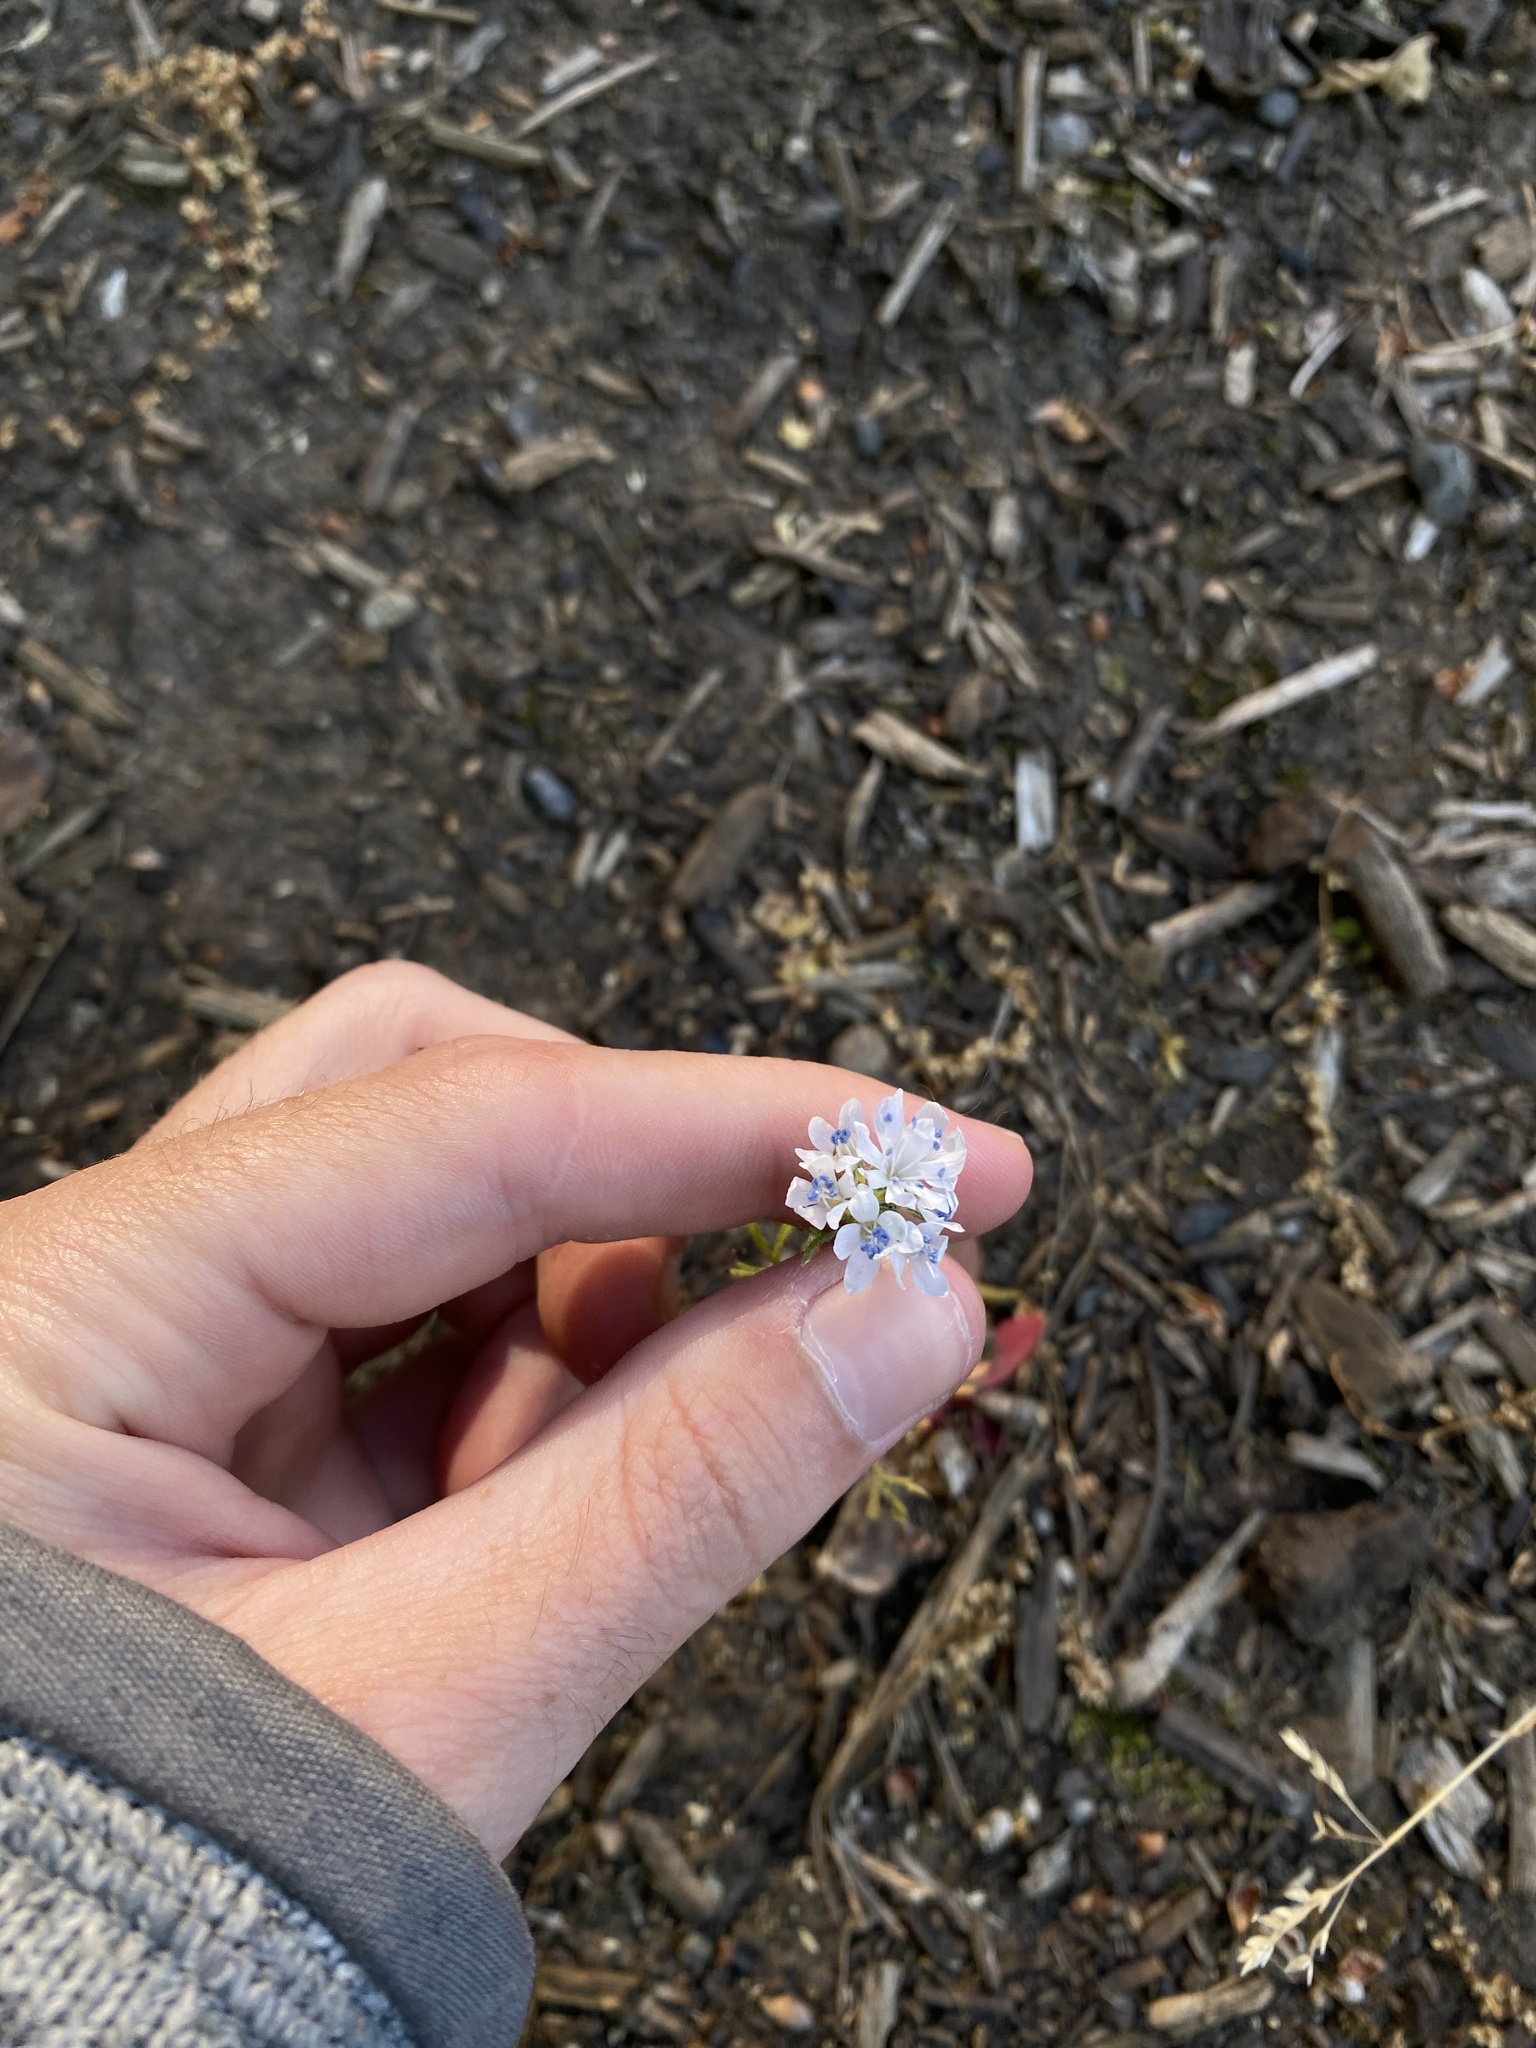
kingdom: Plantae
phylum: Tracheophyta
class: Magnoliopsida
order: Ericales
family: Polemoniaceae
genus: Gilia
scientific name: Gilia capitata
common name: Bluehead gilia
